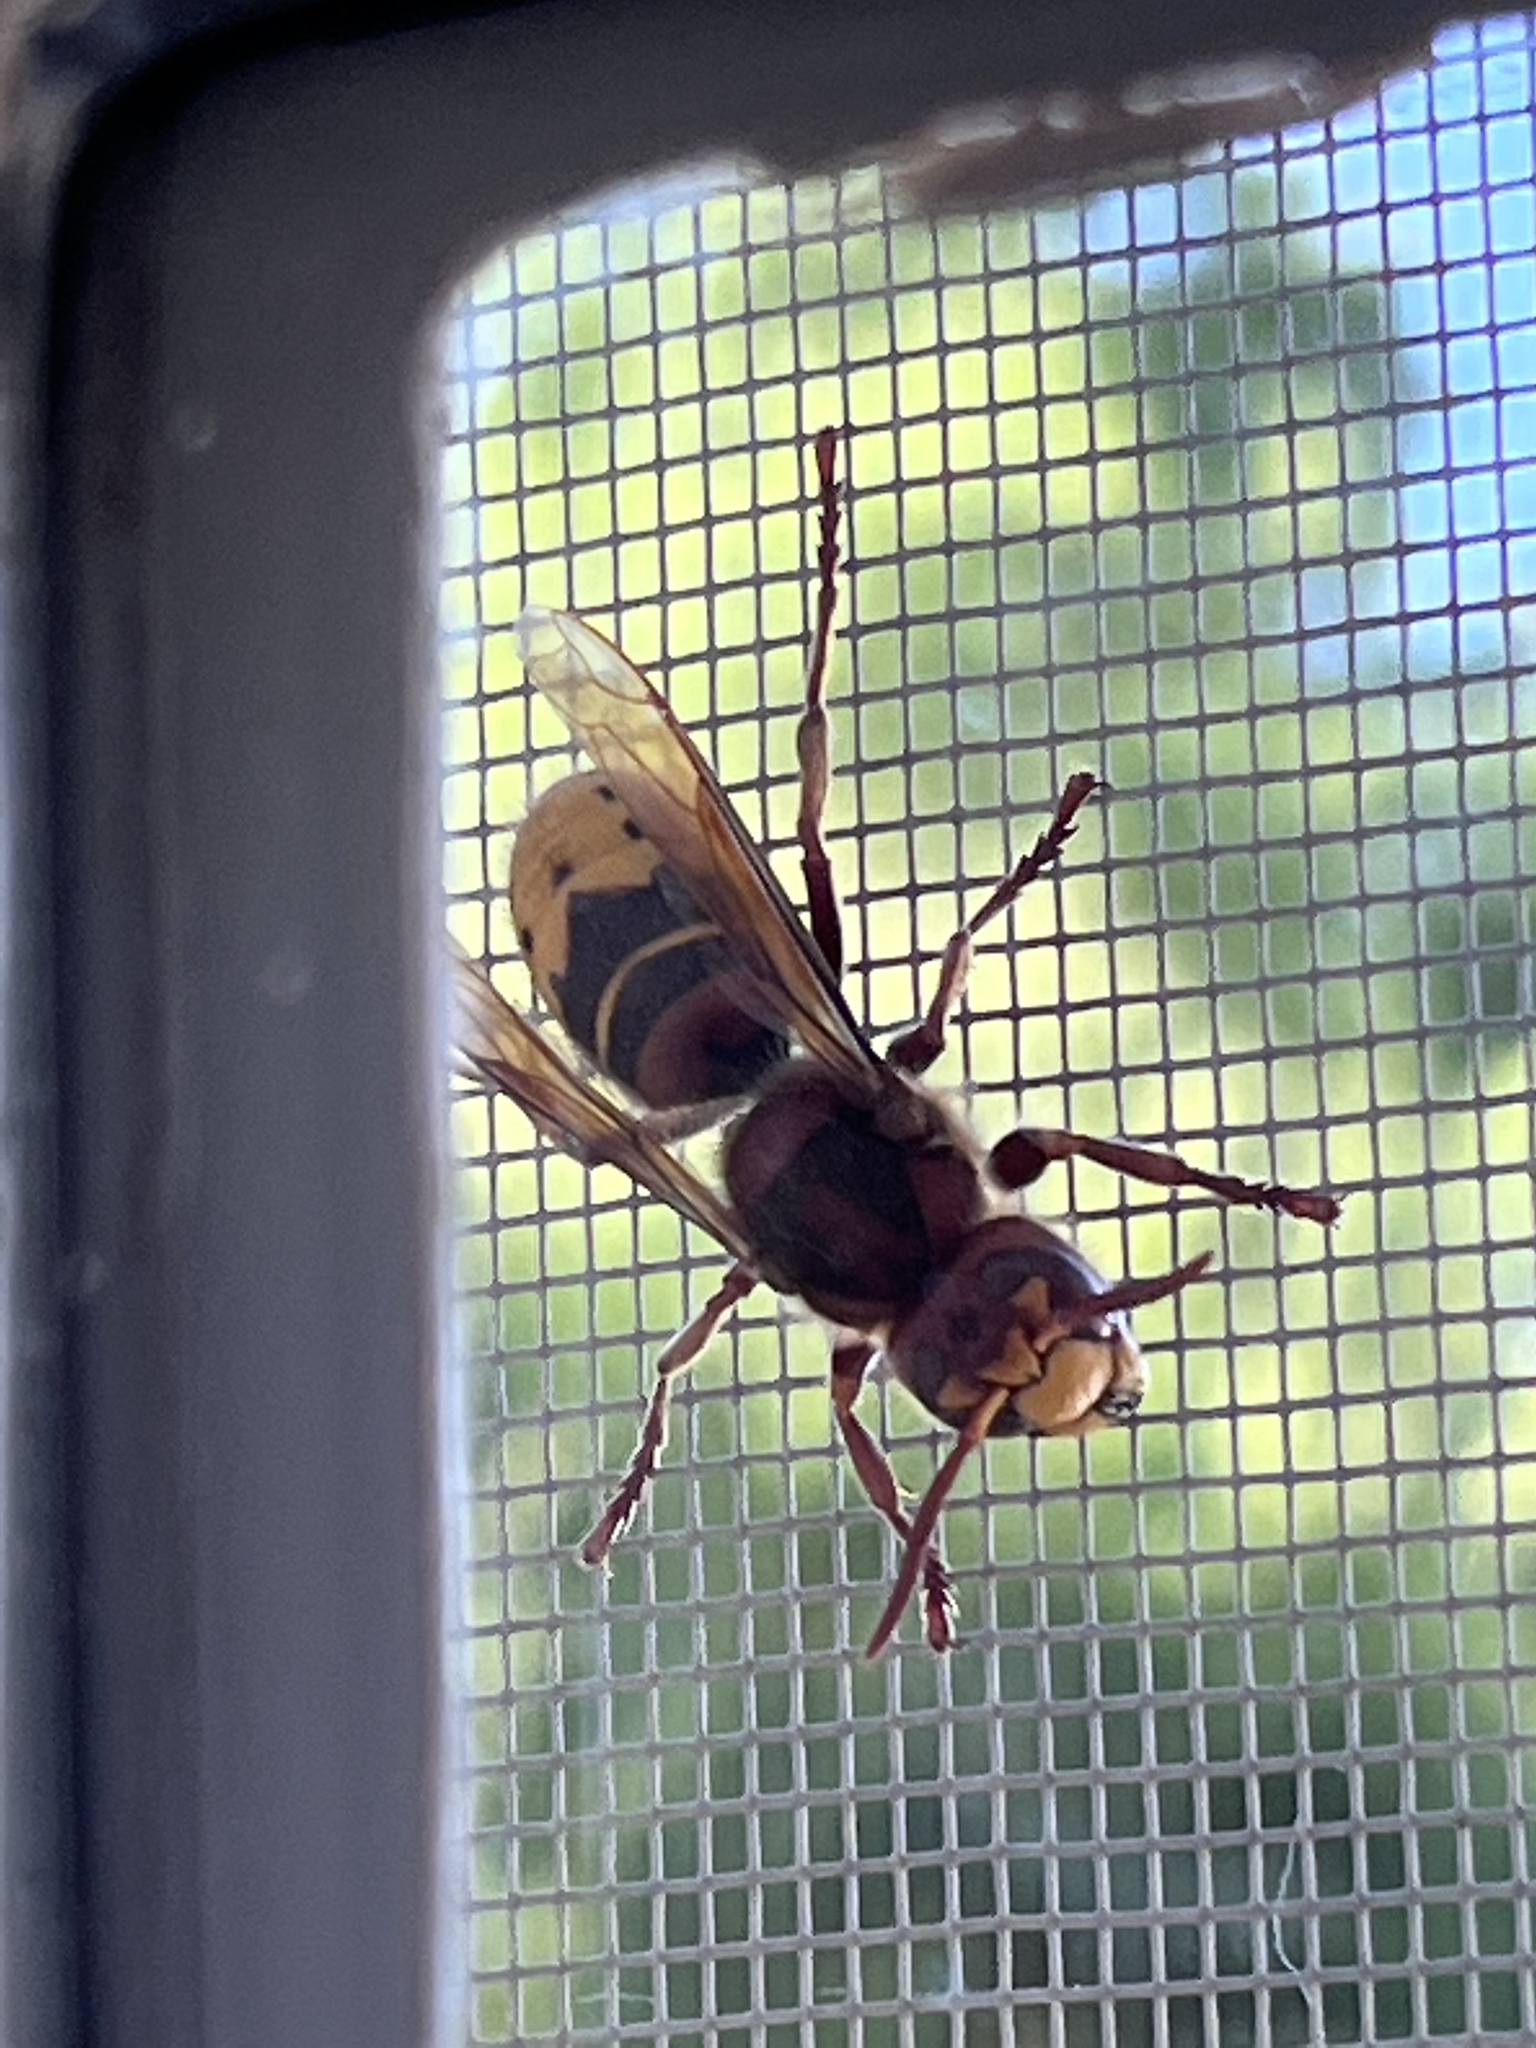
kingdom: Animalia
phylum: Arthropoda
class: Insecta
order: Hymenoptera
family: Vespidae
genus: Vespa
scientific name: Vespa crabro
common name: Hornet
